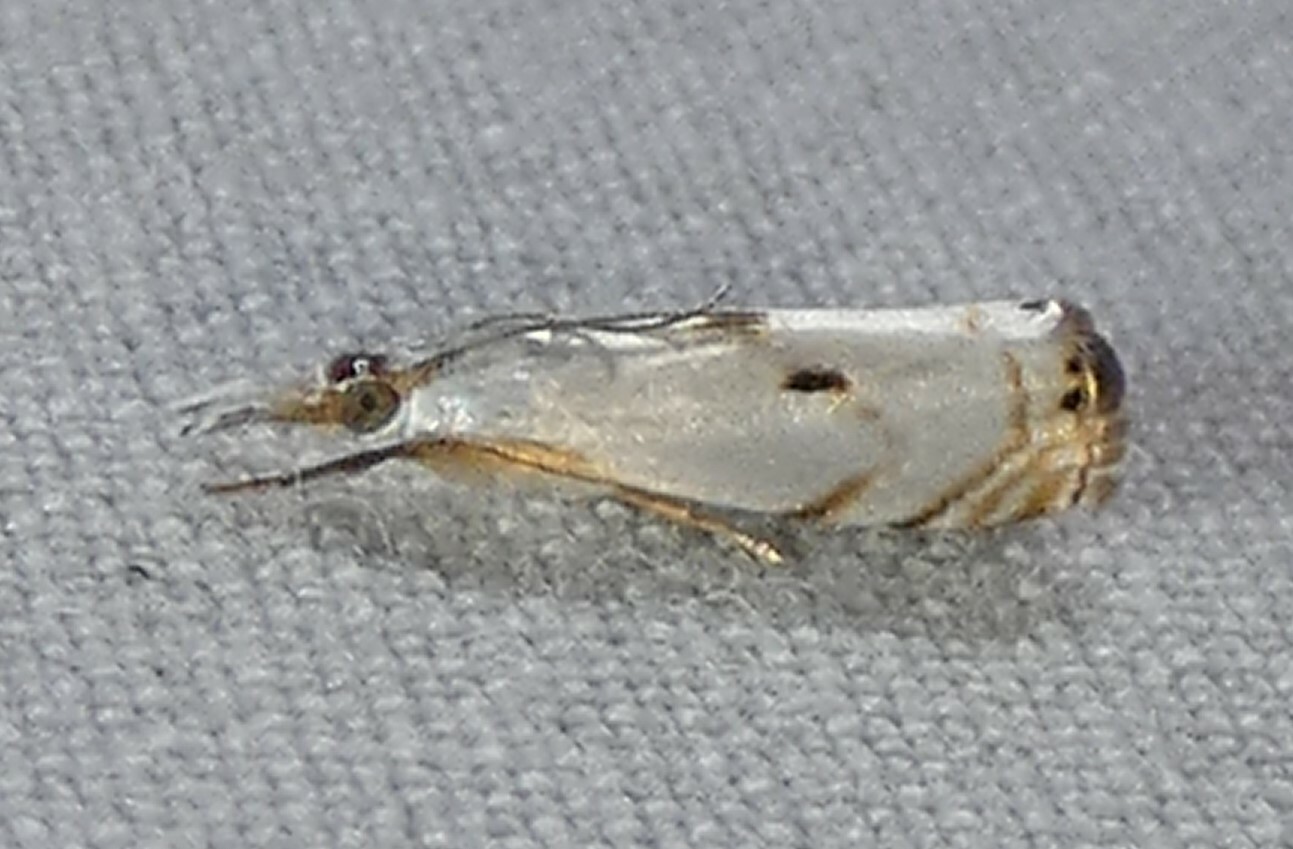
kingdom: Animalia
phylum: Arthropoda
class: Insecta
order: Lepidoptera
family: Crambidae
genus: Microcrambus
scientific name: Microcrambus biguttellus
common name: Gold-stripe grass-veneer moth
